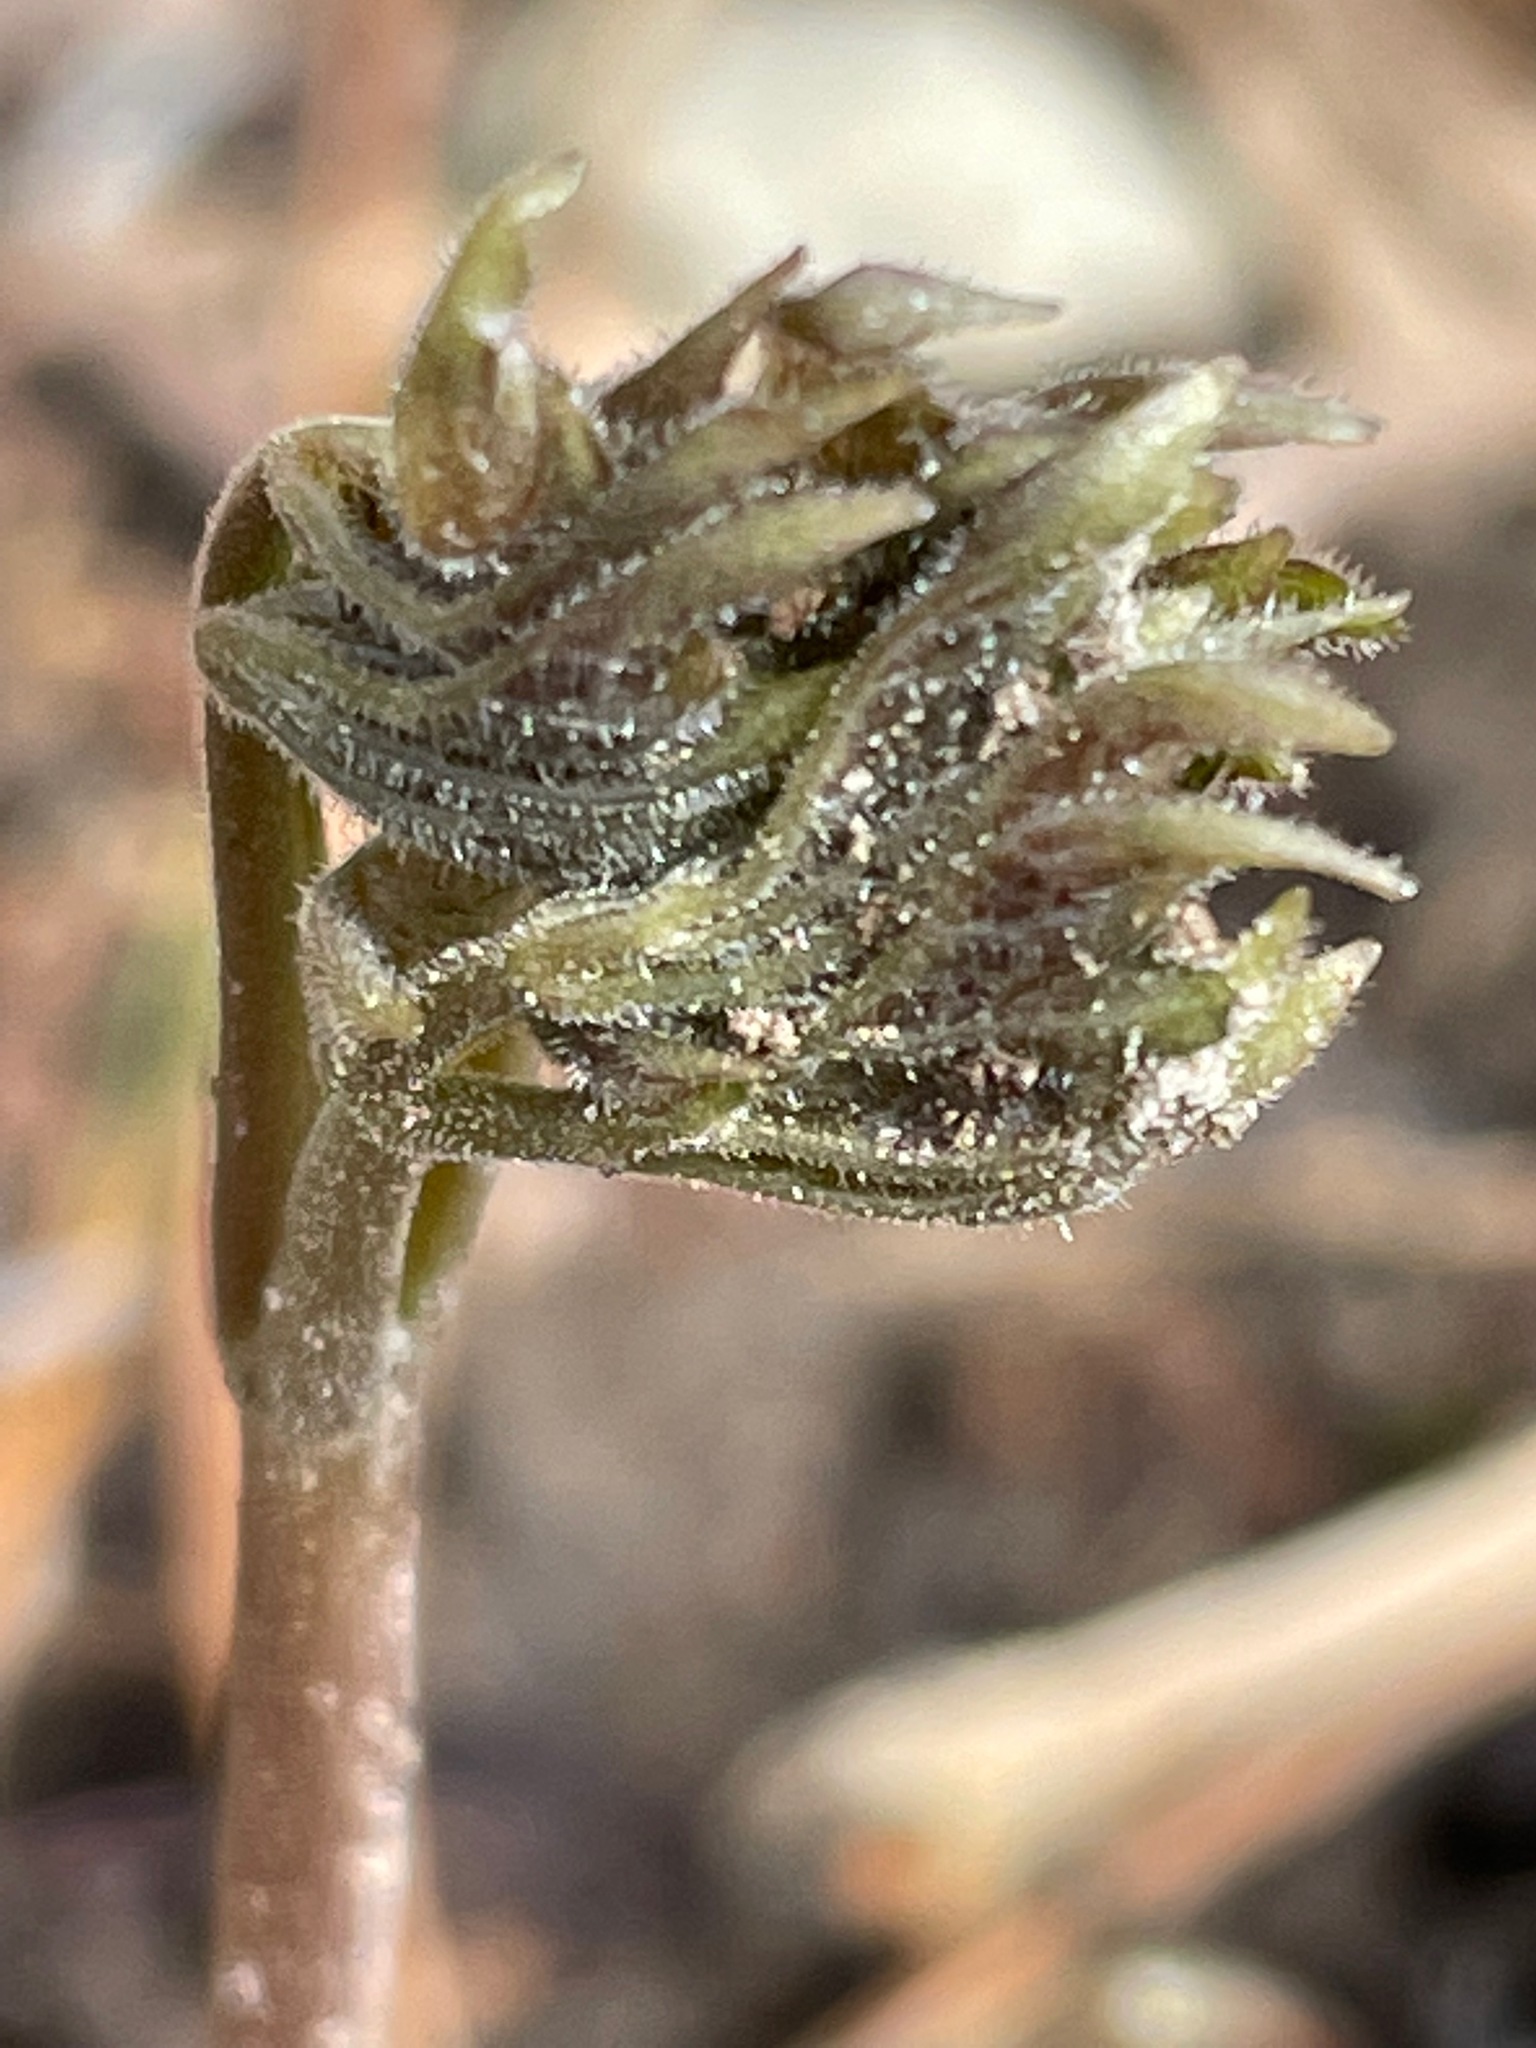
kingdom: Plantae
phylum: Tracheophyta
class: Magnoliopsida
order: Apiales
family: Araliaceae
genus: Aralia
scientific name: Aralia nudicaulis
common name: Wild sarsaparilla
